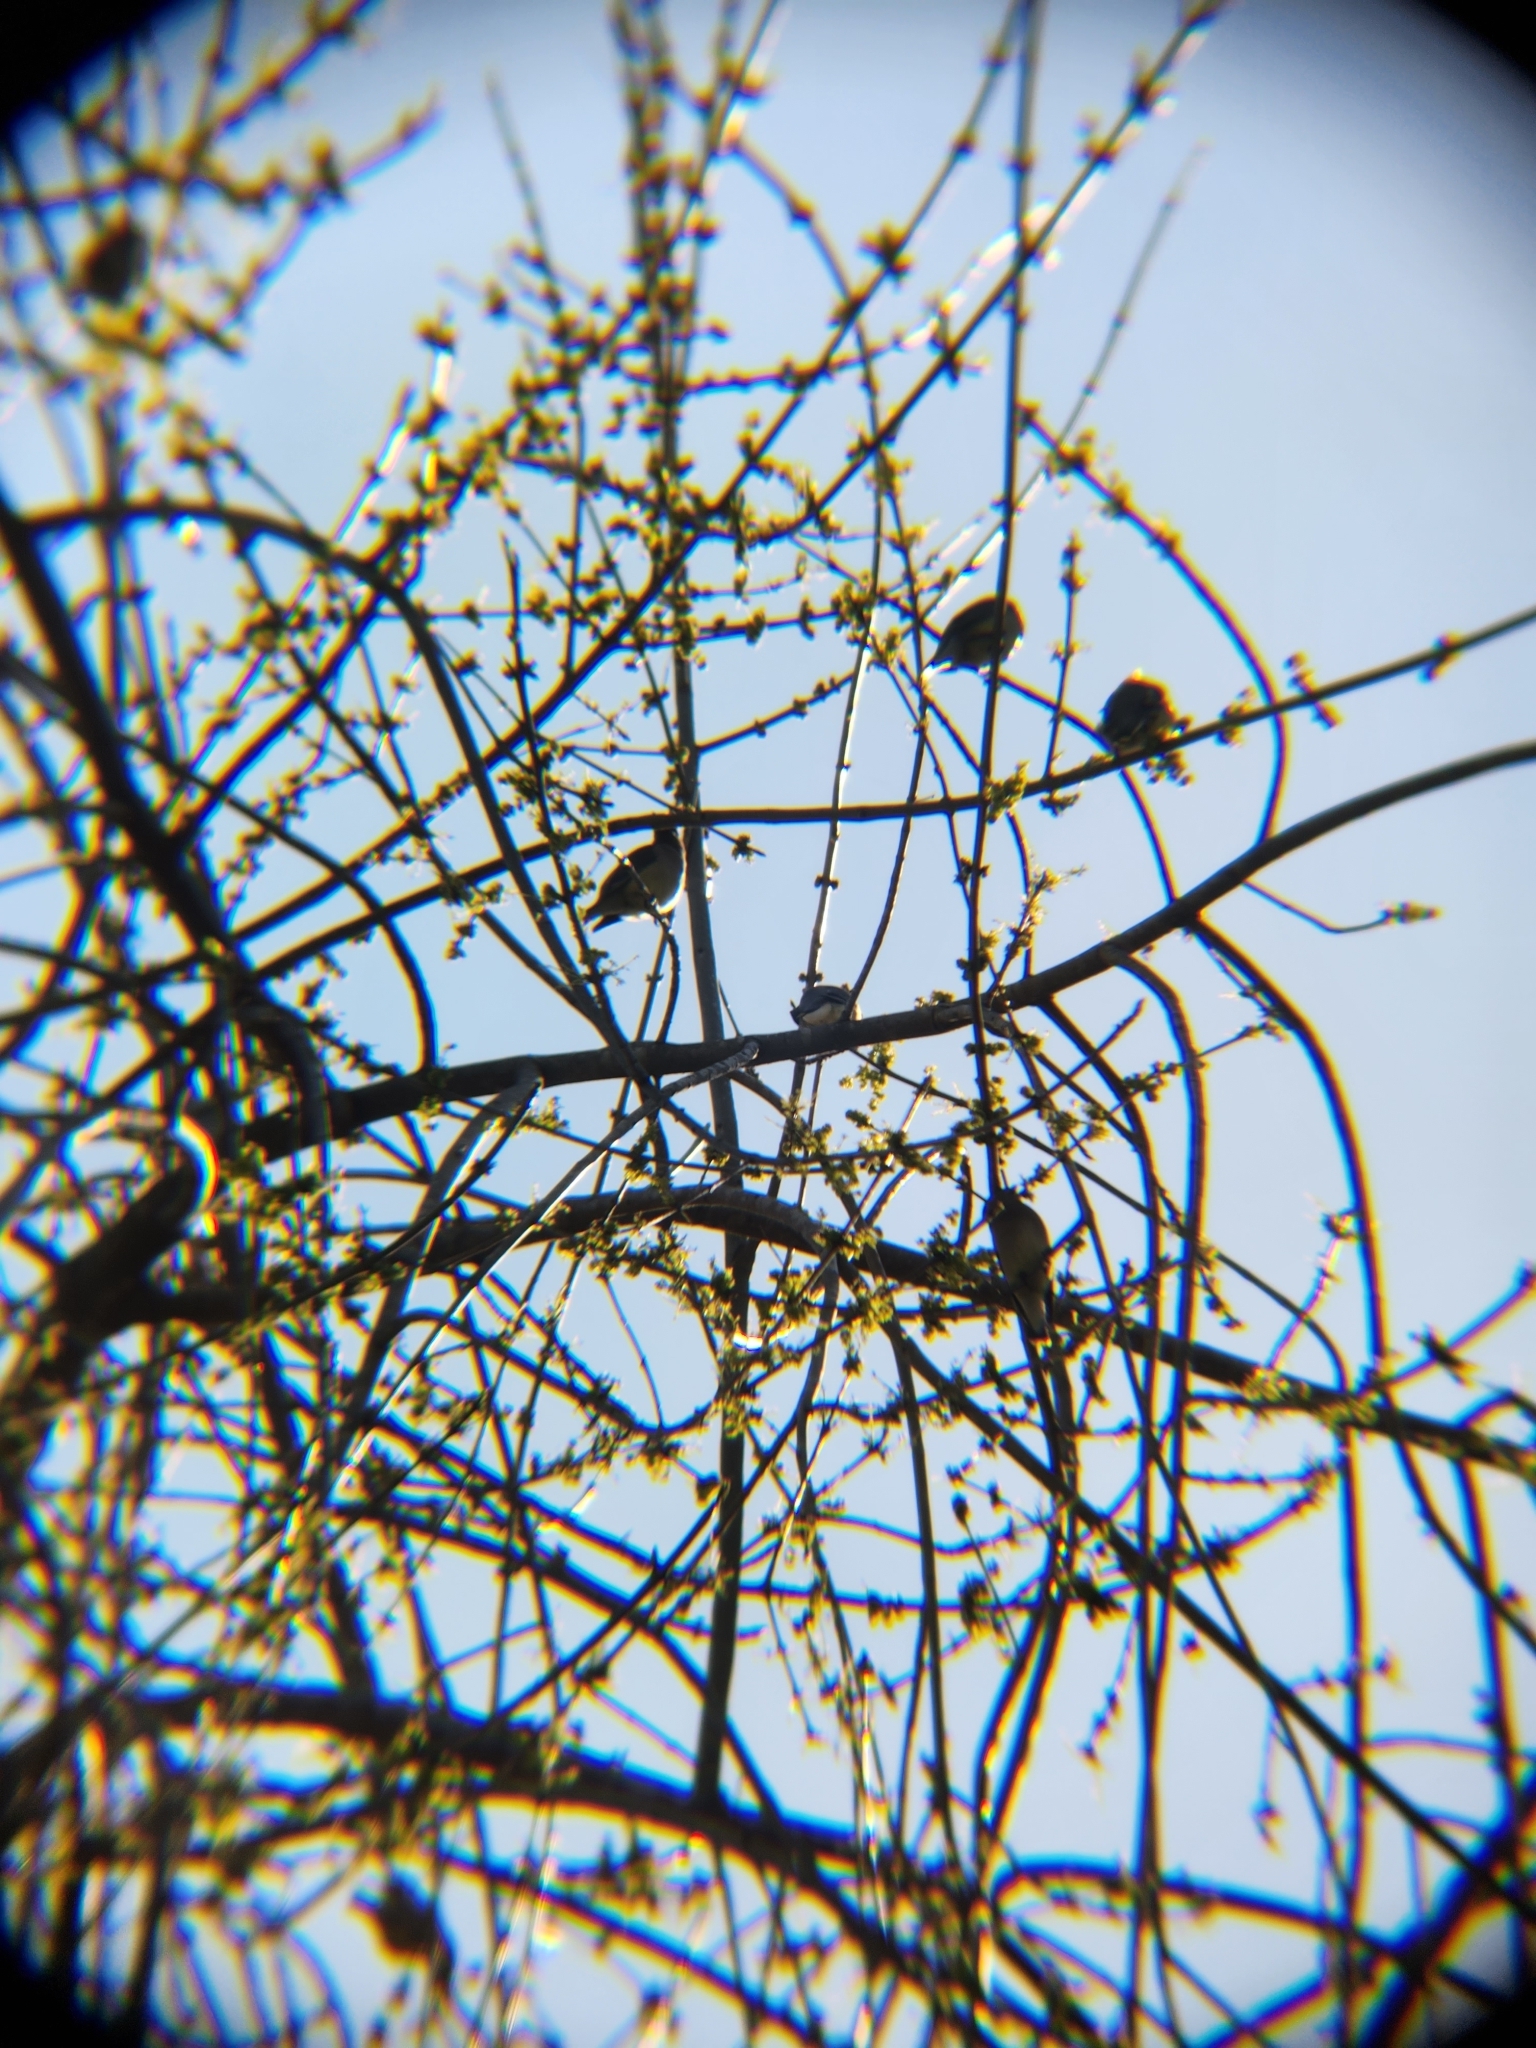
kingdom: Animalia
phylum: Chordata
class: Aves
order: Passeriformes
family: Bombycillidae
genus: Bombycilla
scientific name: Bombycilla cedrorum
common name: Cedar waxwing
